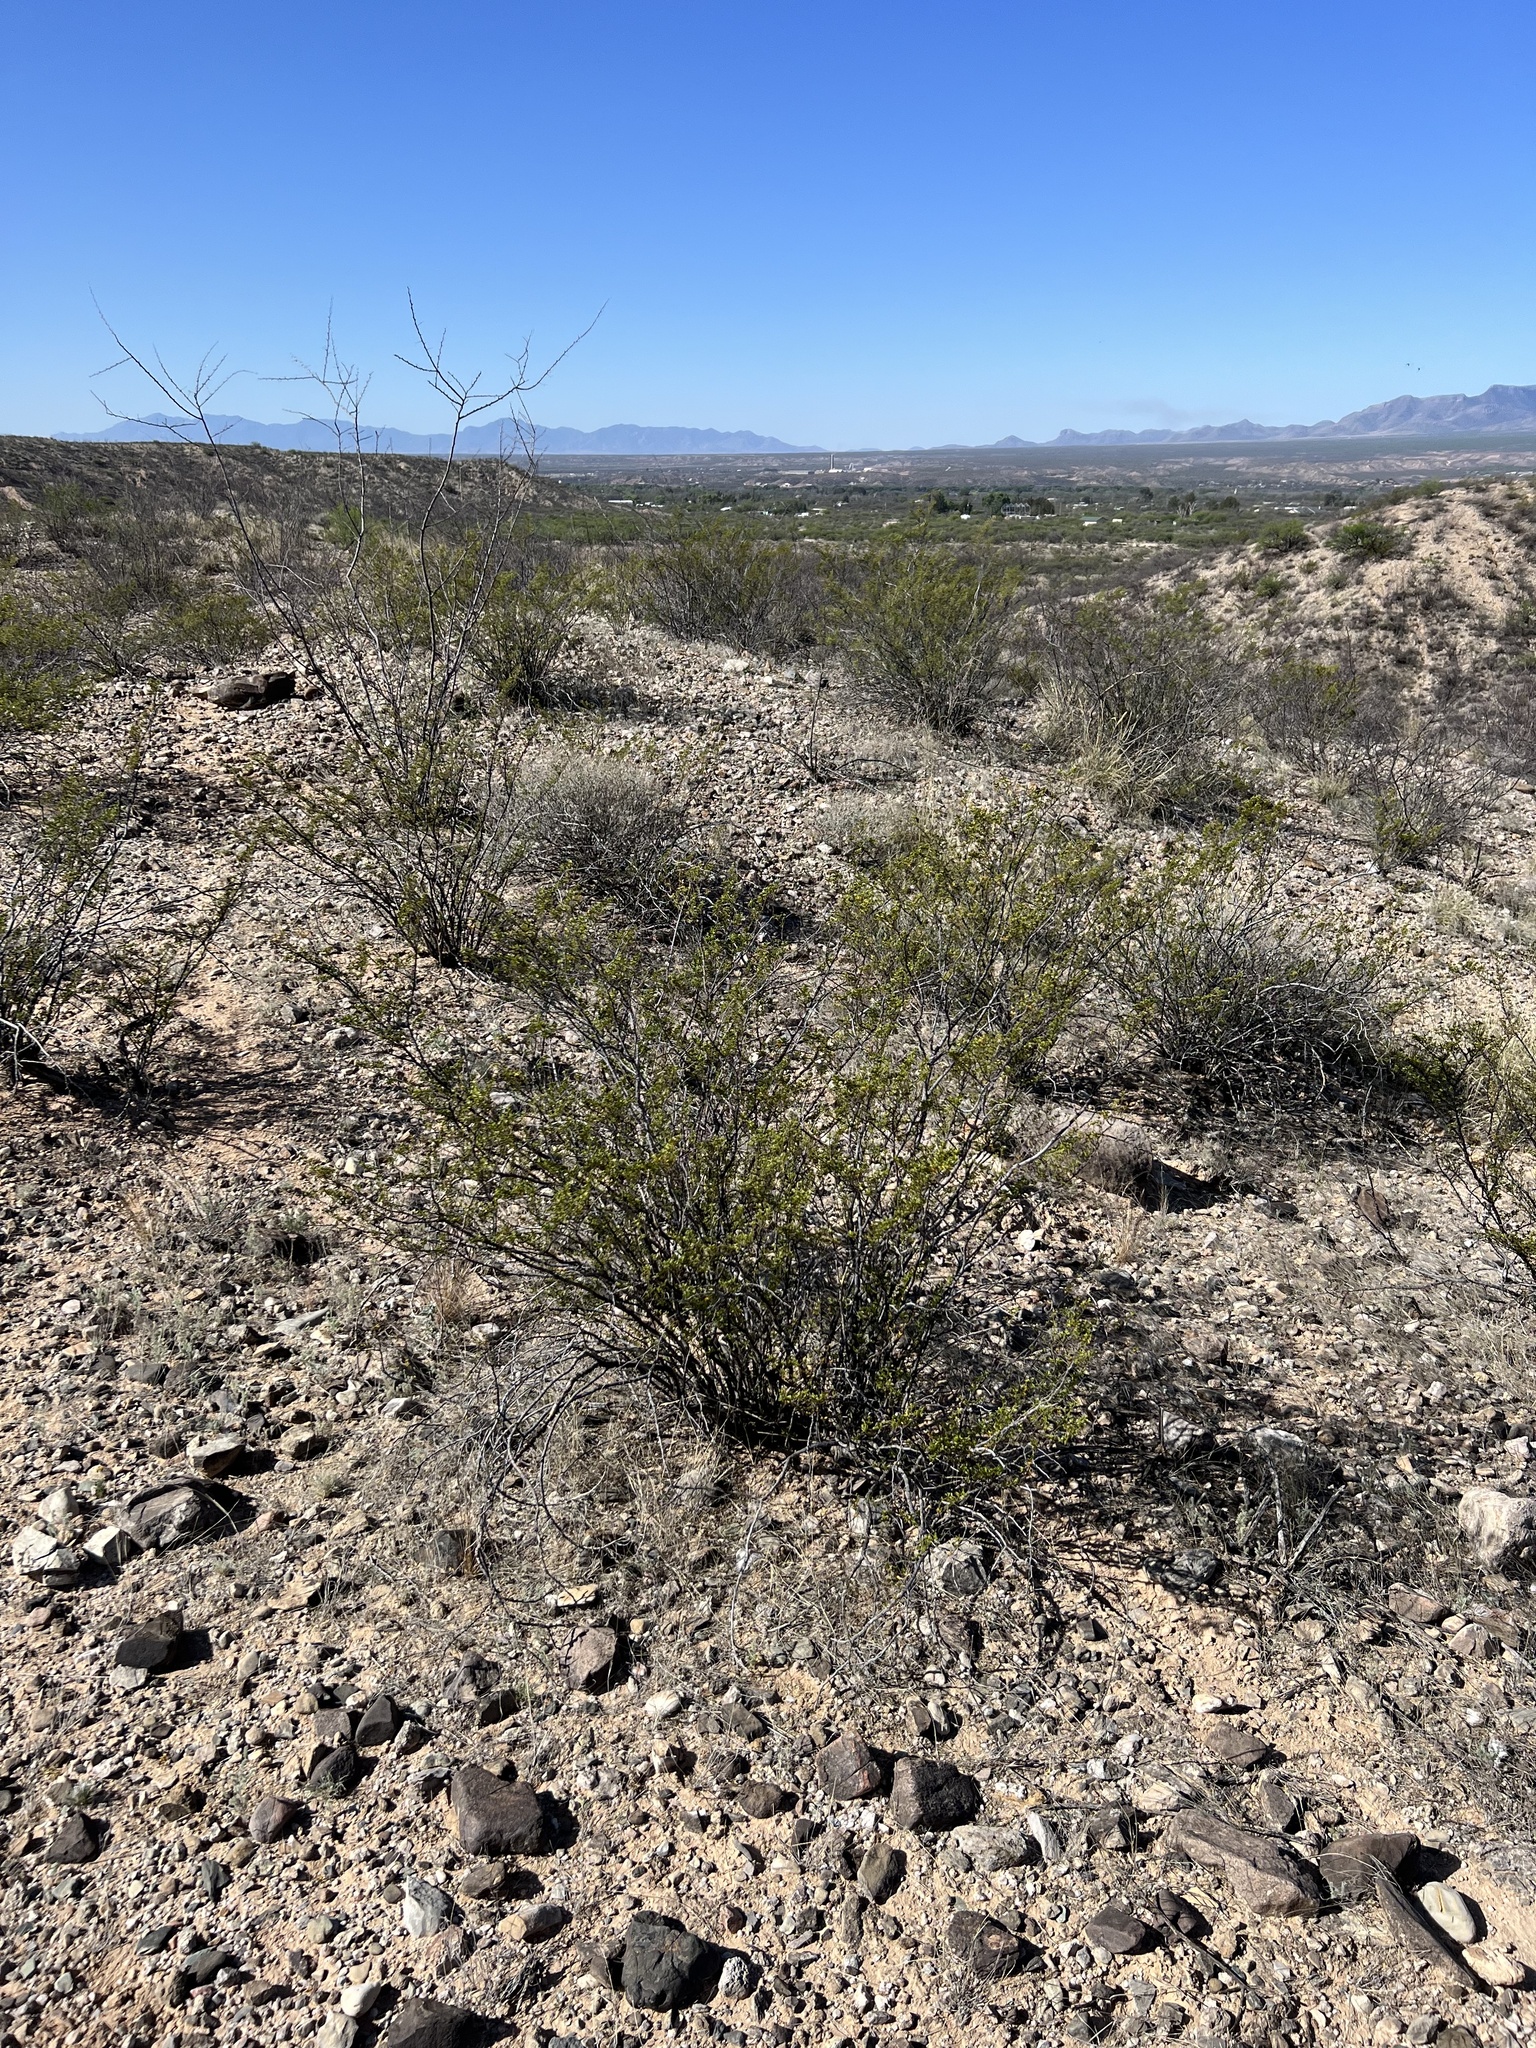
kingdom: Plantae
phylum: Tracheophyta
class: Magnoliopsida
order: Zygophyllales
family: Zygophyllaceae
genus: Larrea
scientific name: Larrea tridentata
